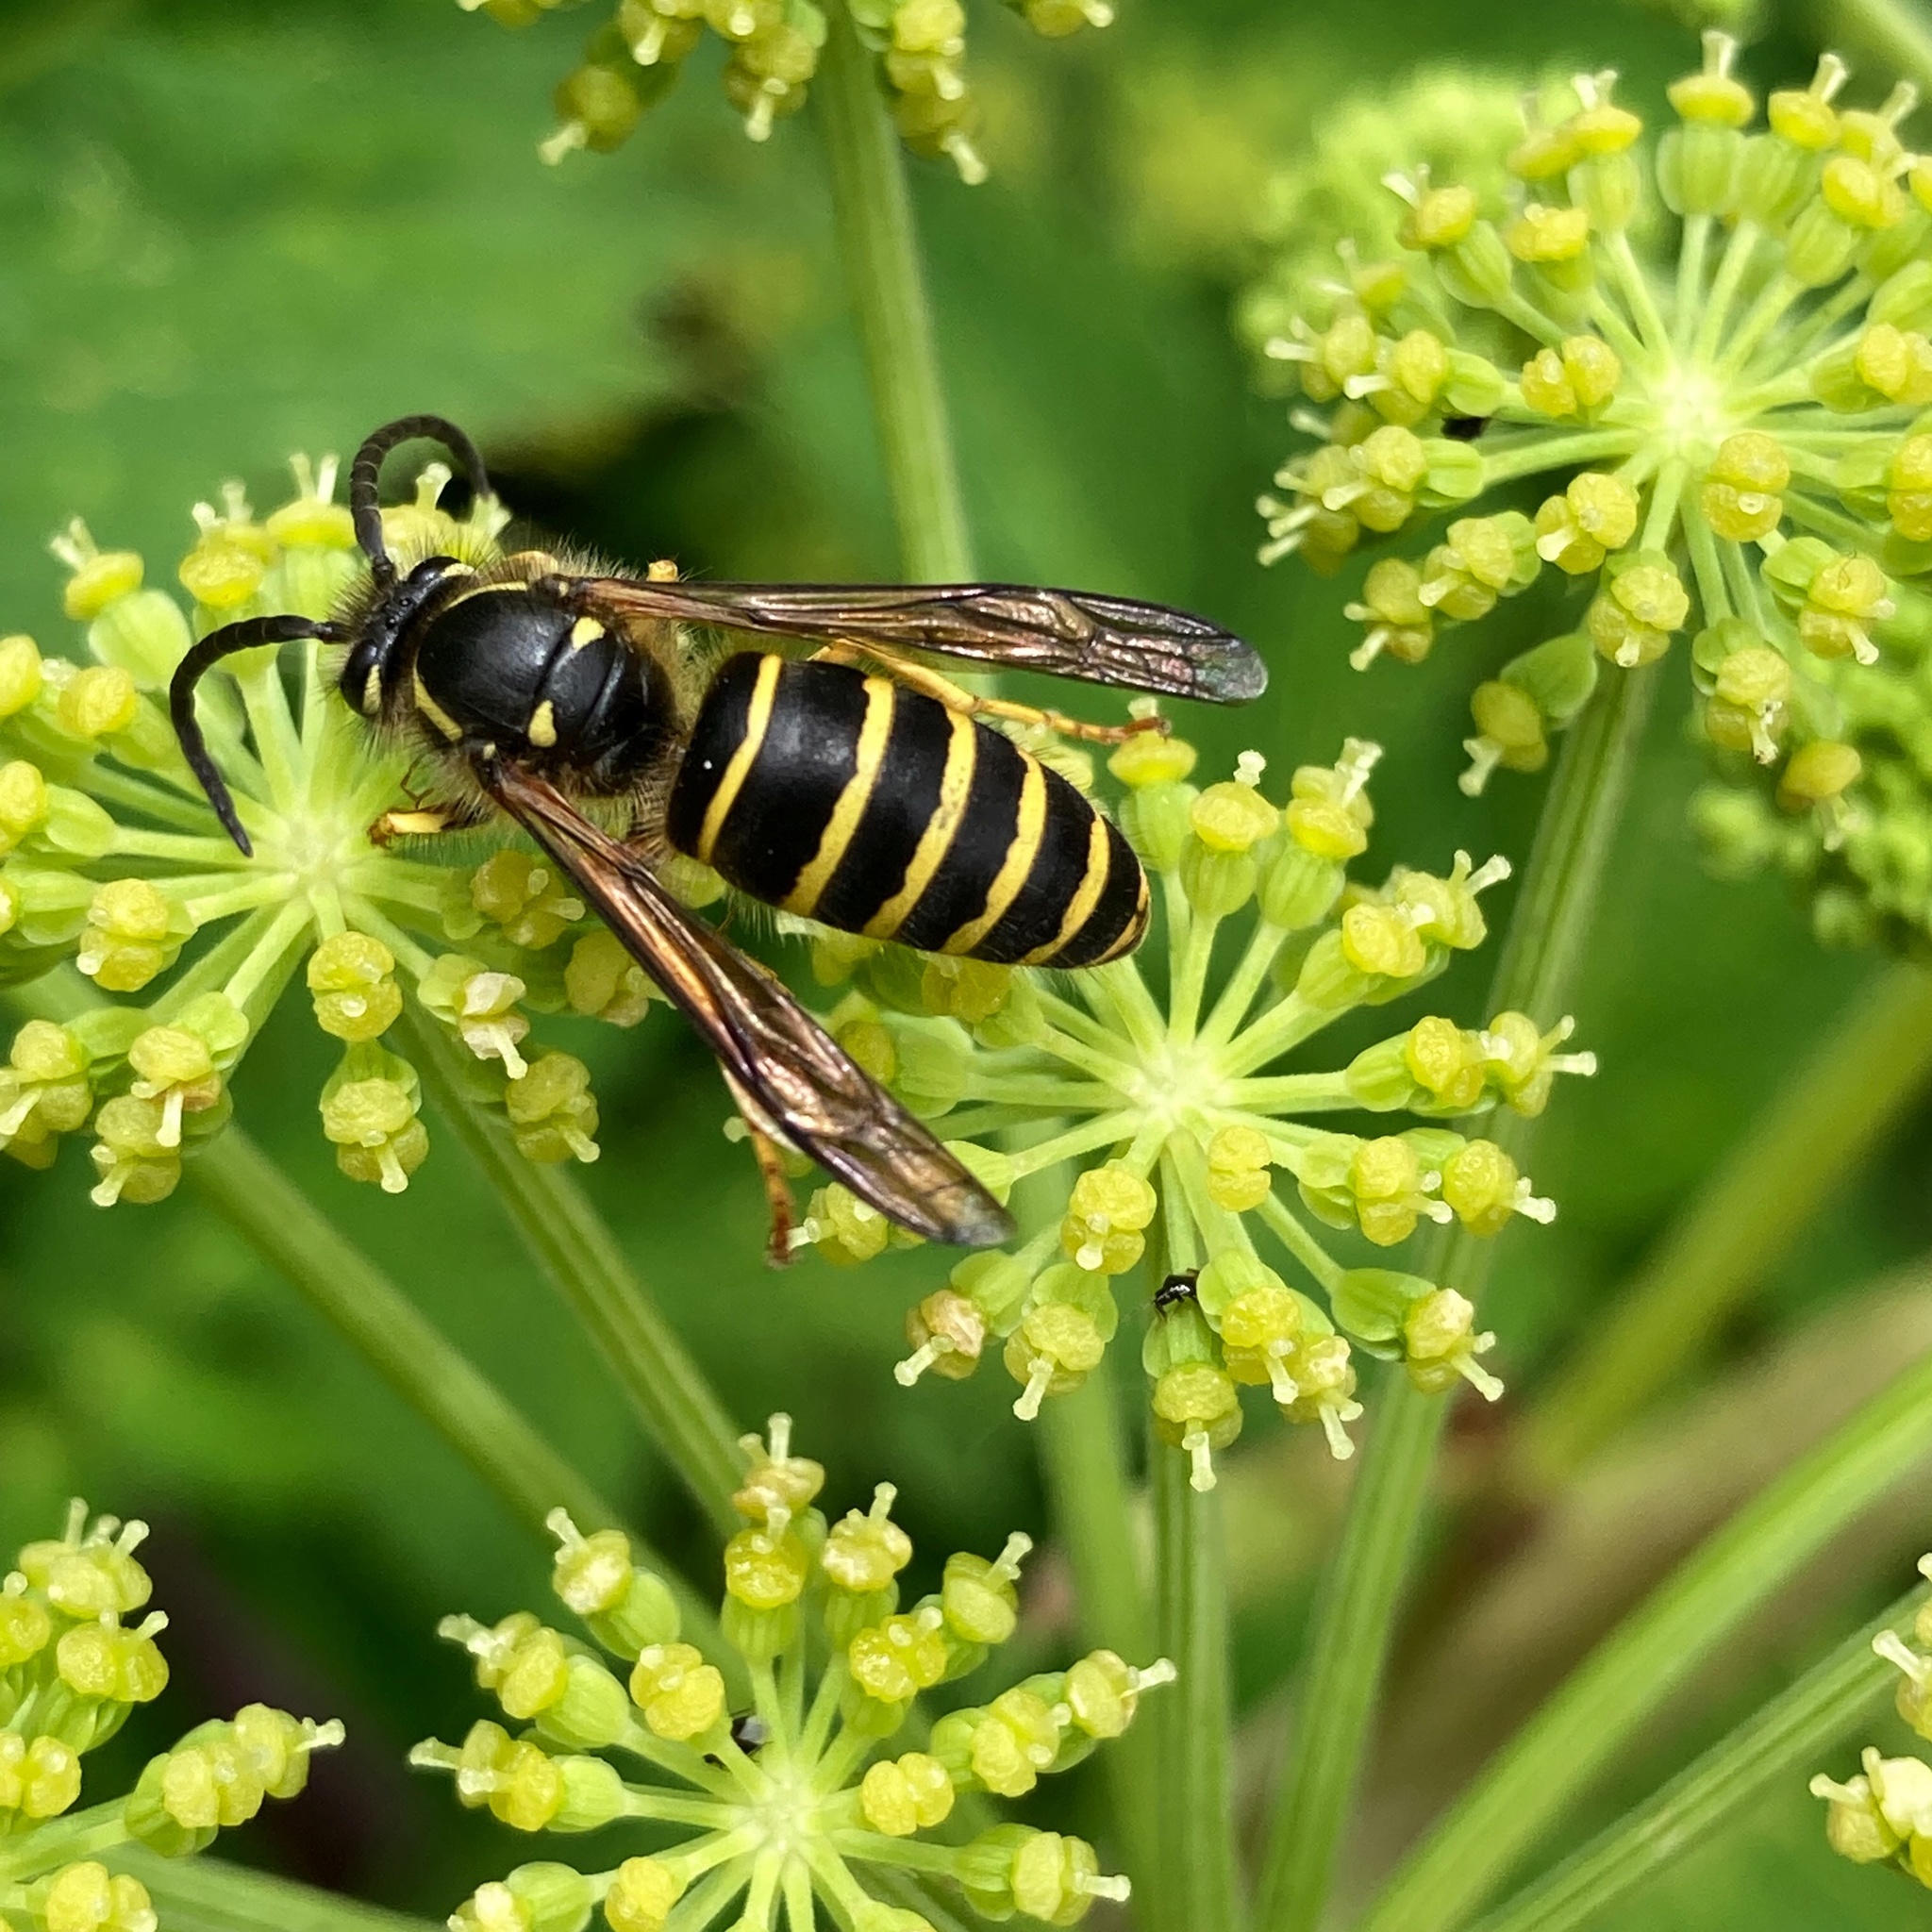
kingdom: Animalia
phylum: Arthropoda
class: Insecta
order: Hymenoptera
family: Vespidae
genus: Dolichovespula
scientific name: Dolichovespula norvegicoides
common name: Northern aerial yellowjacket
